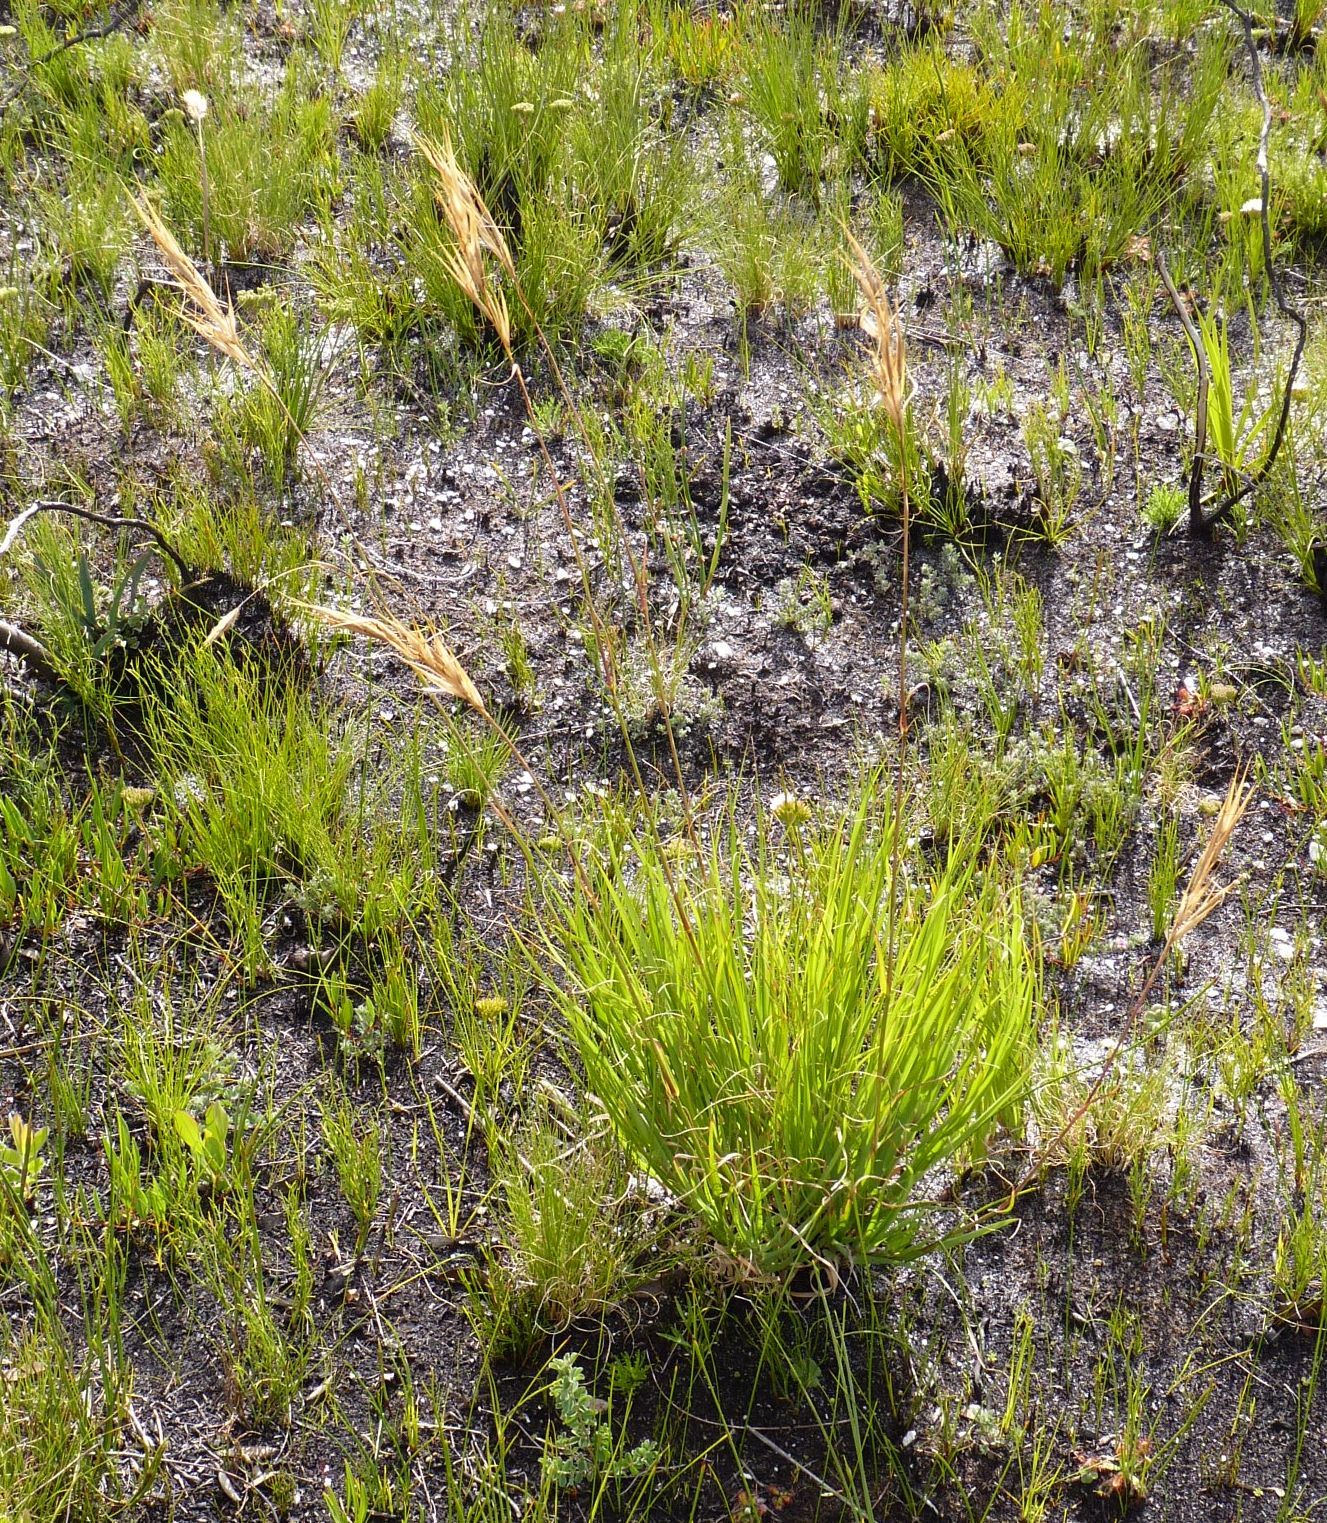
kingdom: Plantae
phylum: Tracheophyta
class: Liliopsida
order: Poales
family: Poaceae
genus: Pseudopentameris
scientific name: Pseudopentameris macrantha
